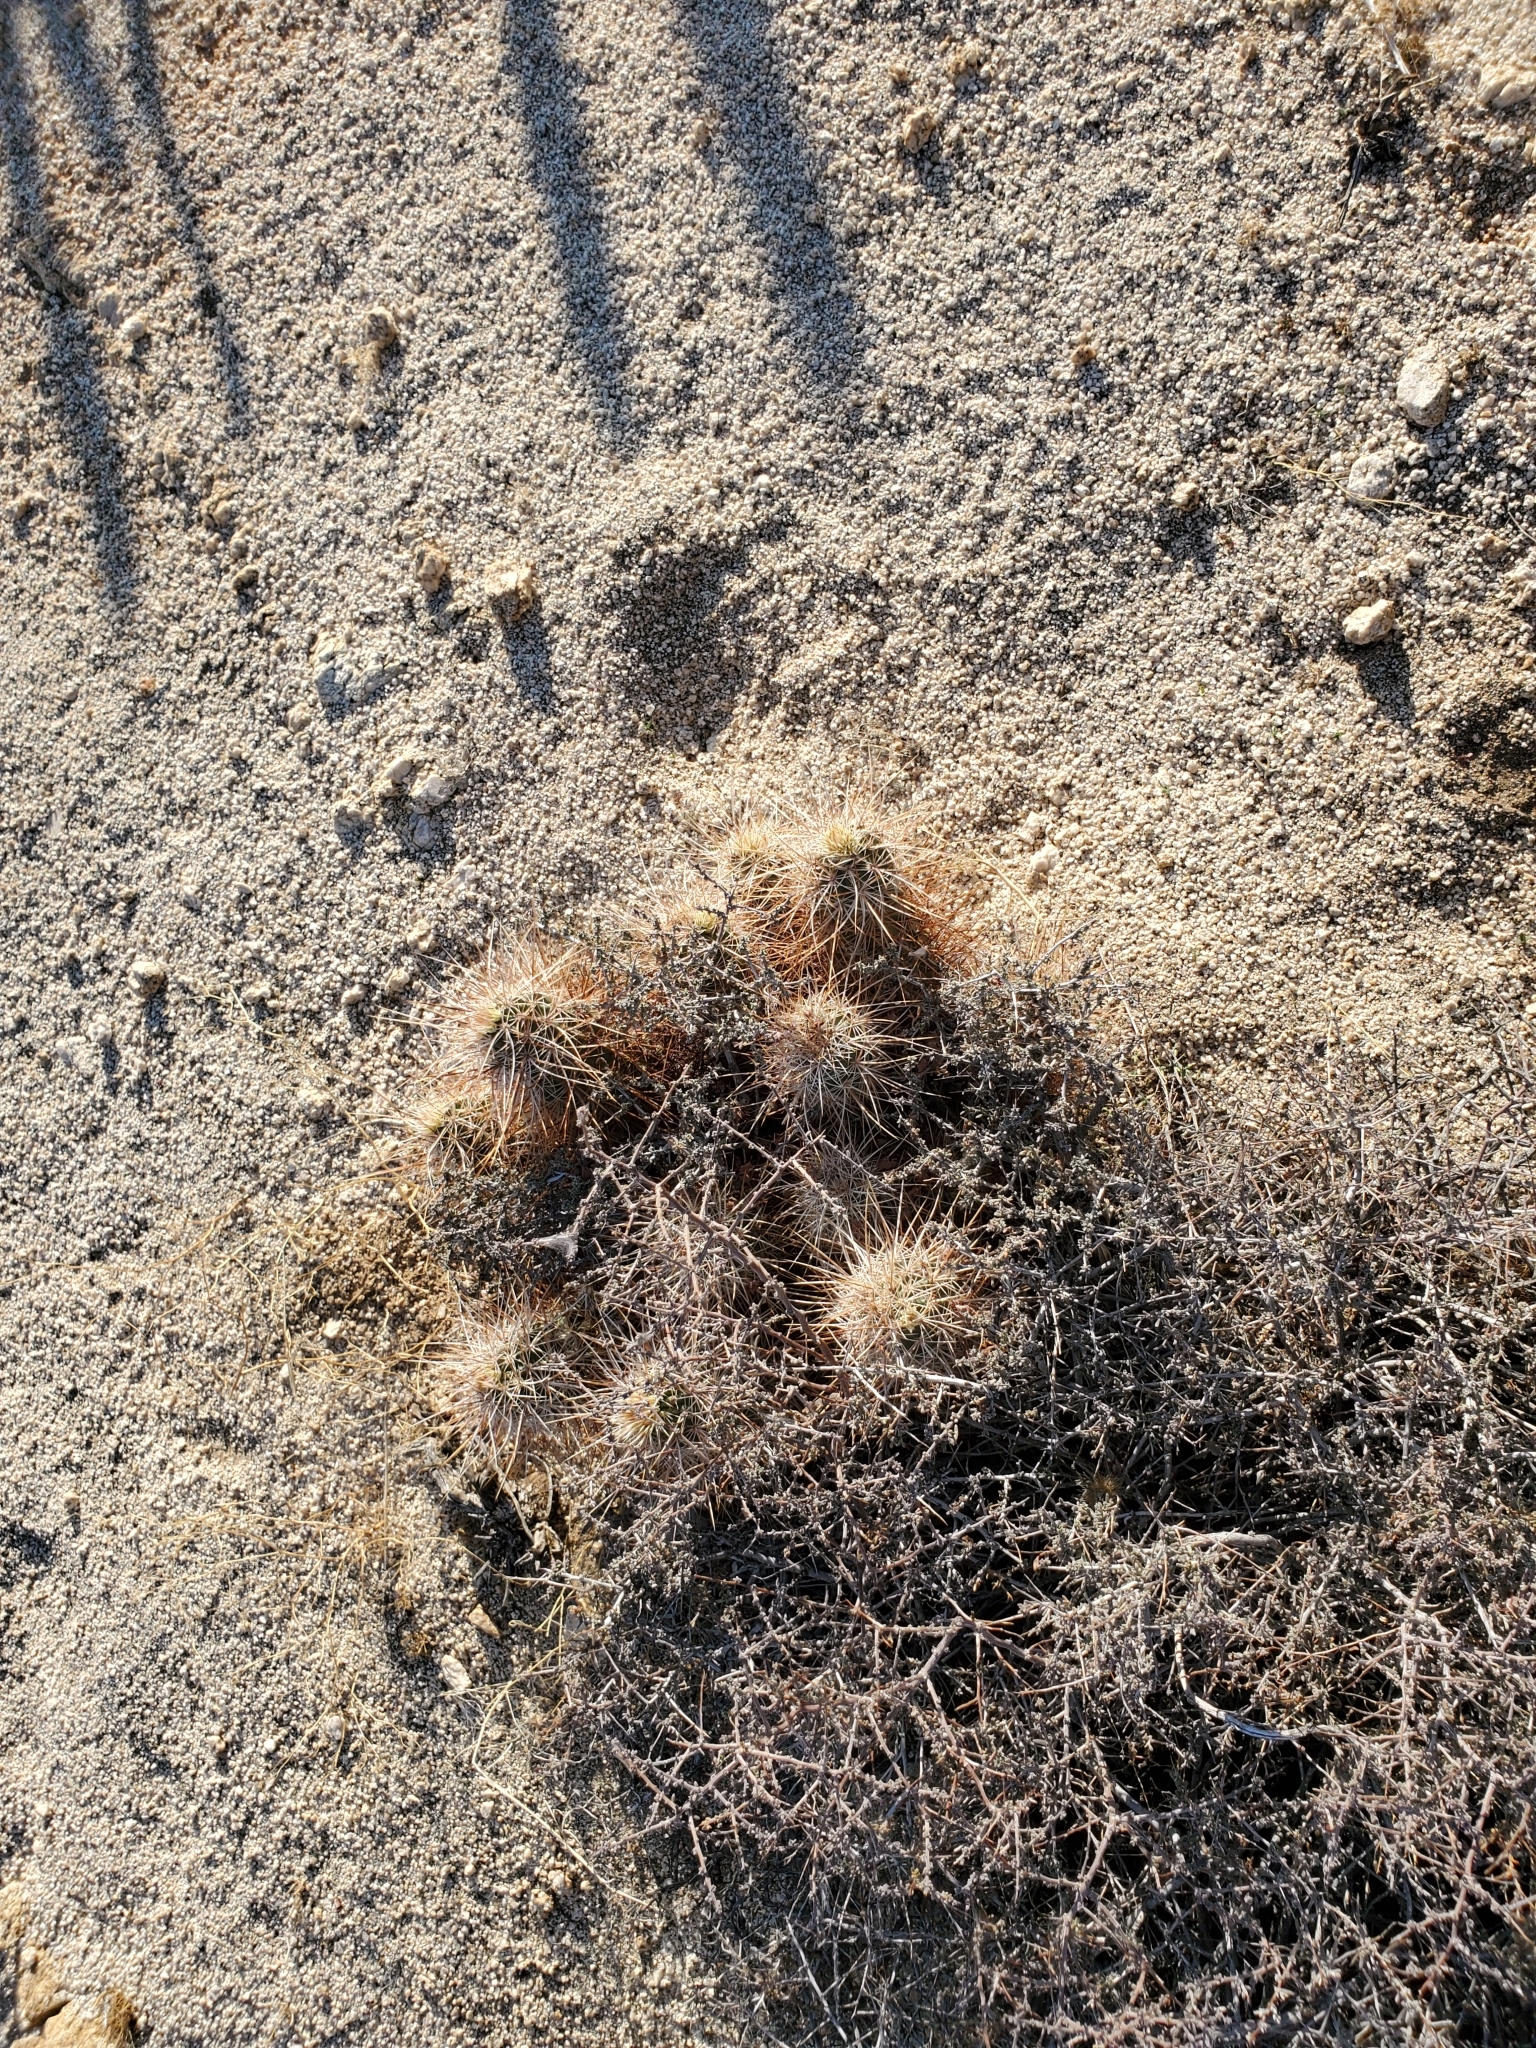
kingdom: Plantae
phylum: Tracheophyta
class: Magnoliopsida
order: Caryophyllales
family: Cactaceae
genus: Echinocereus
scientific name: Echinocereus engelmannii
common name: Engelmann's hedgehog cactus
